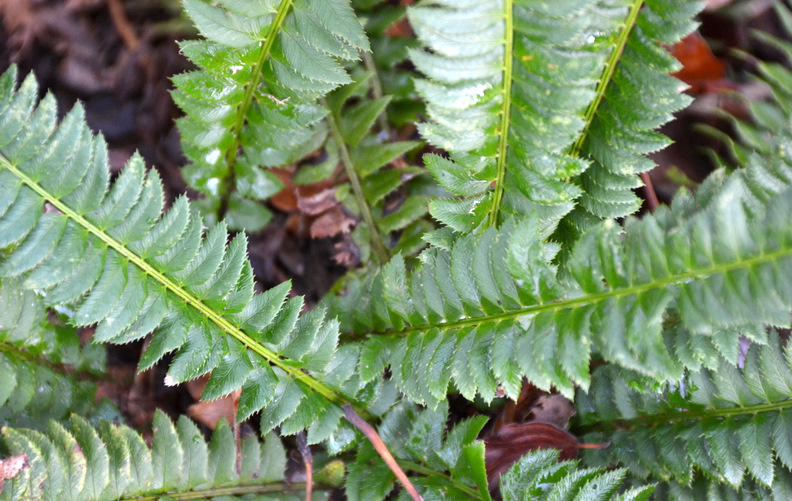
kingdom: Plantae
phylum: Tracheophyta
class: Polypodiopsida
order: Polypodiales
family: Dryopteridaceae
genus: Polystichum
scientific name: Polystichum lonchitis
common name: Holly fern
